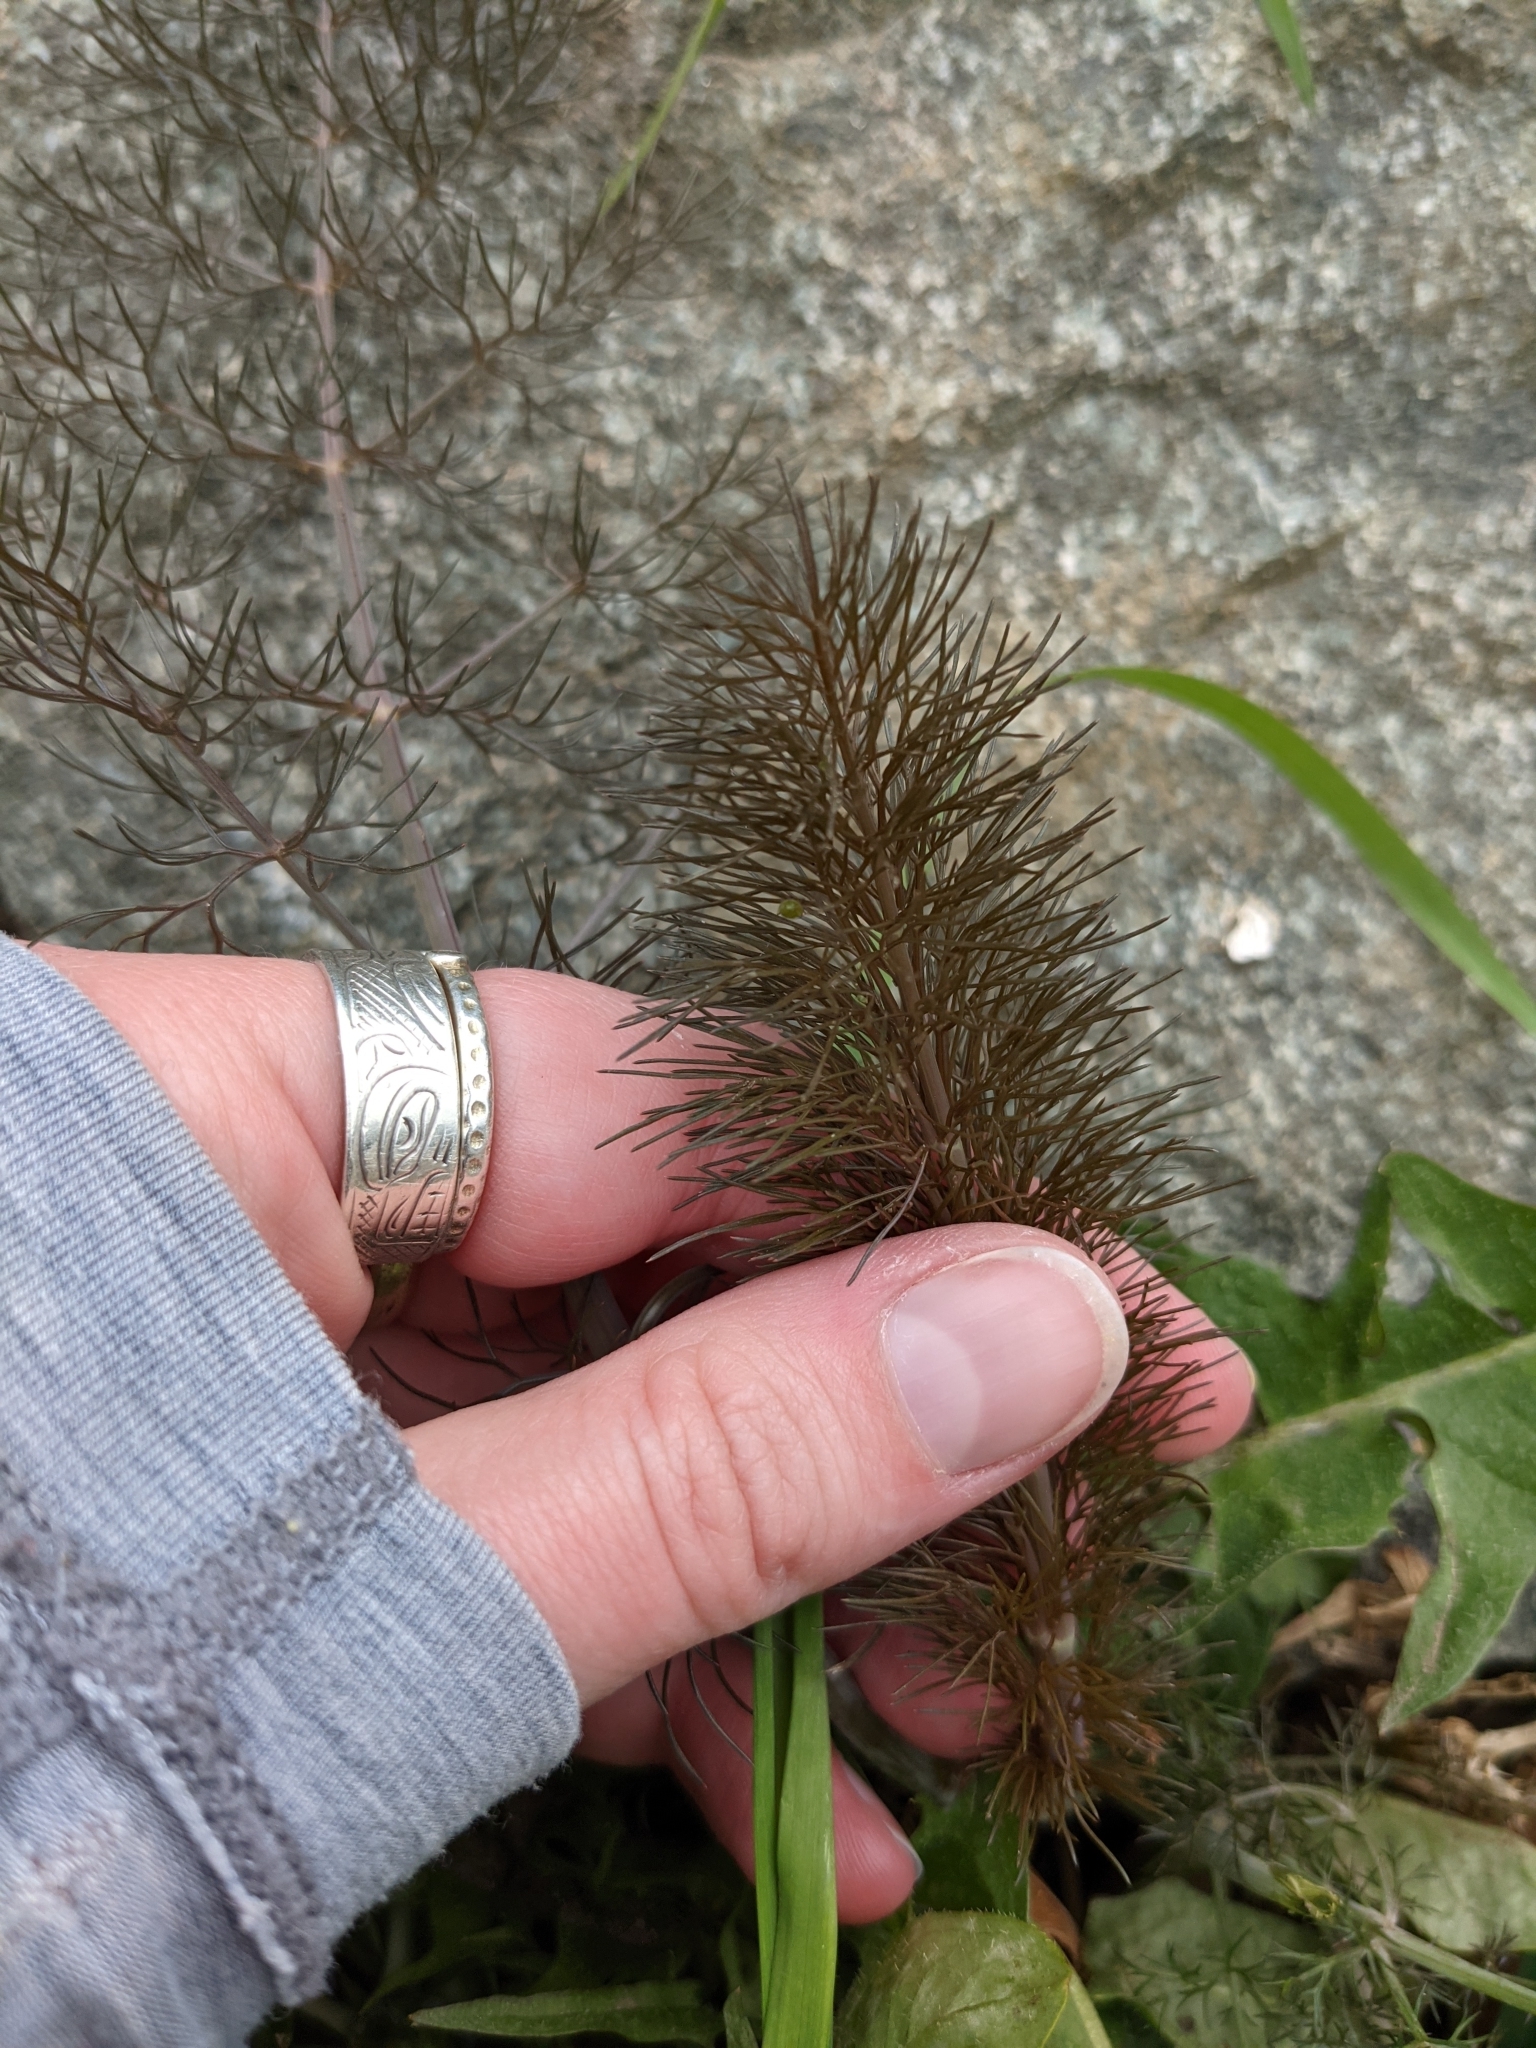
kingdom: Plantae
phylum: Tracheophyta
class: Magnoliopsida
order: Apiales
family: Apiaceae
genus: Foeniculum
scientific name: Foeniculum vulgare
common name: Fennel
